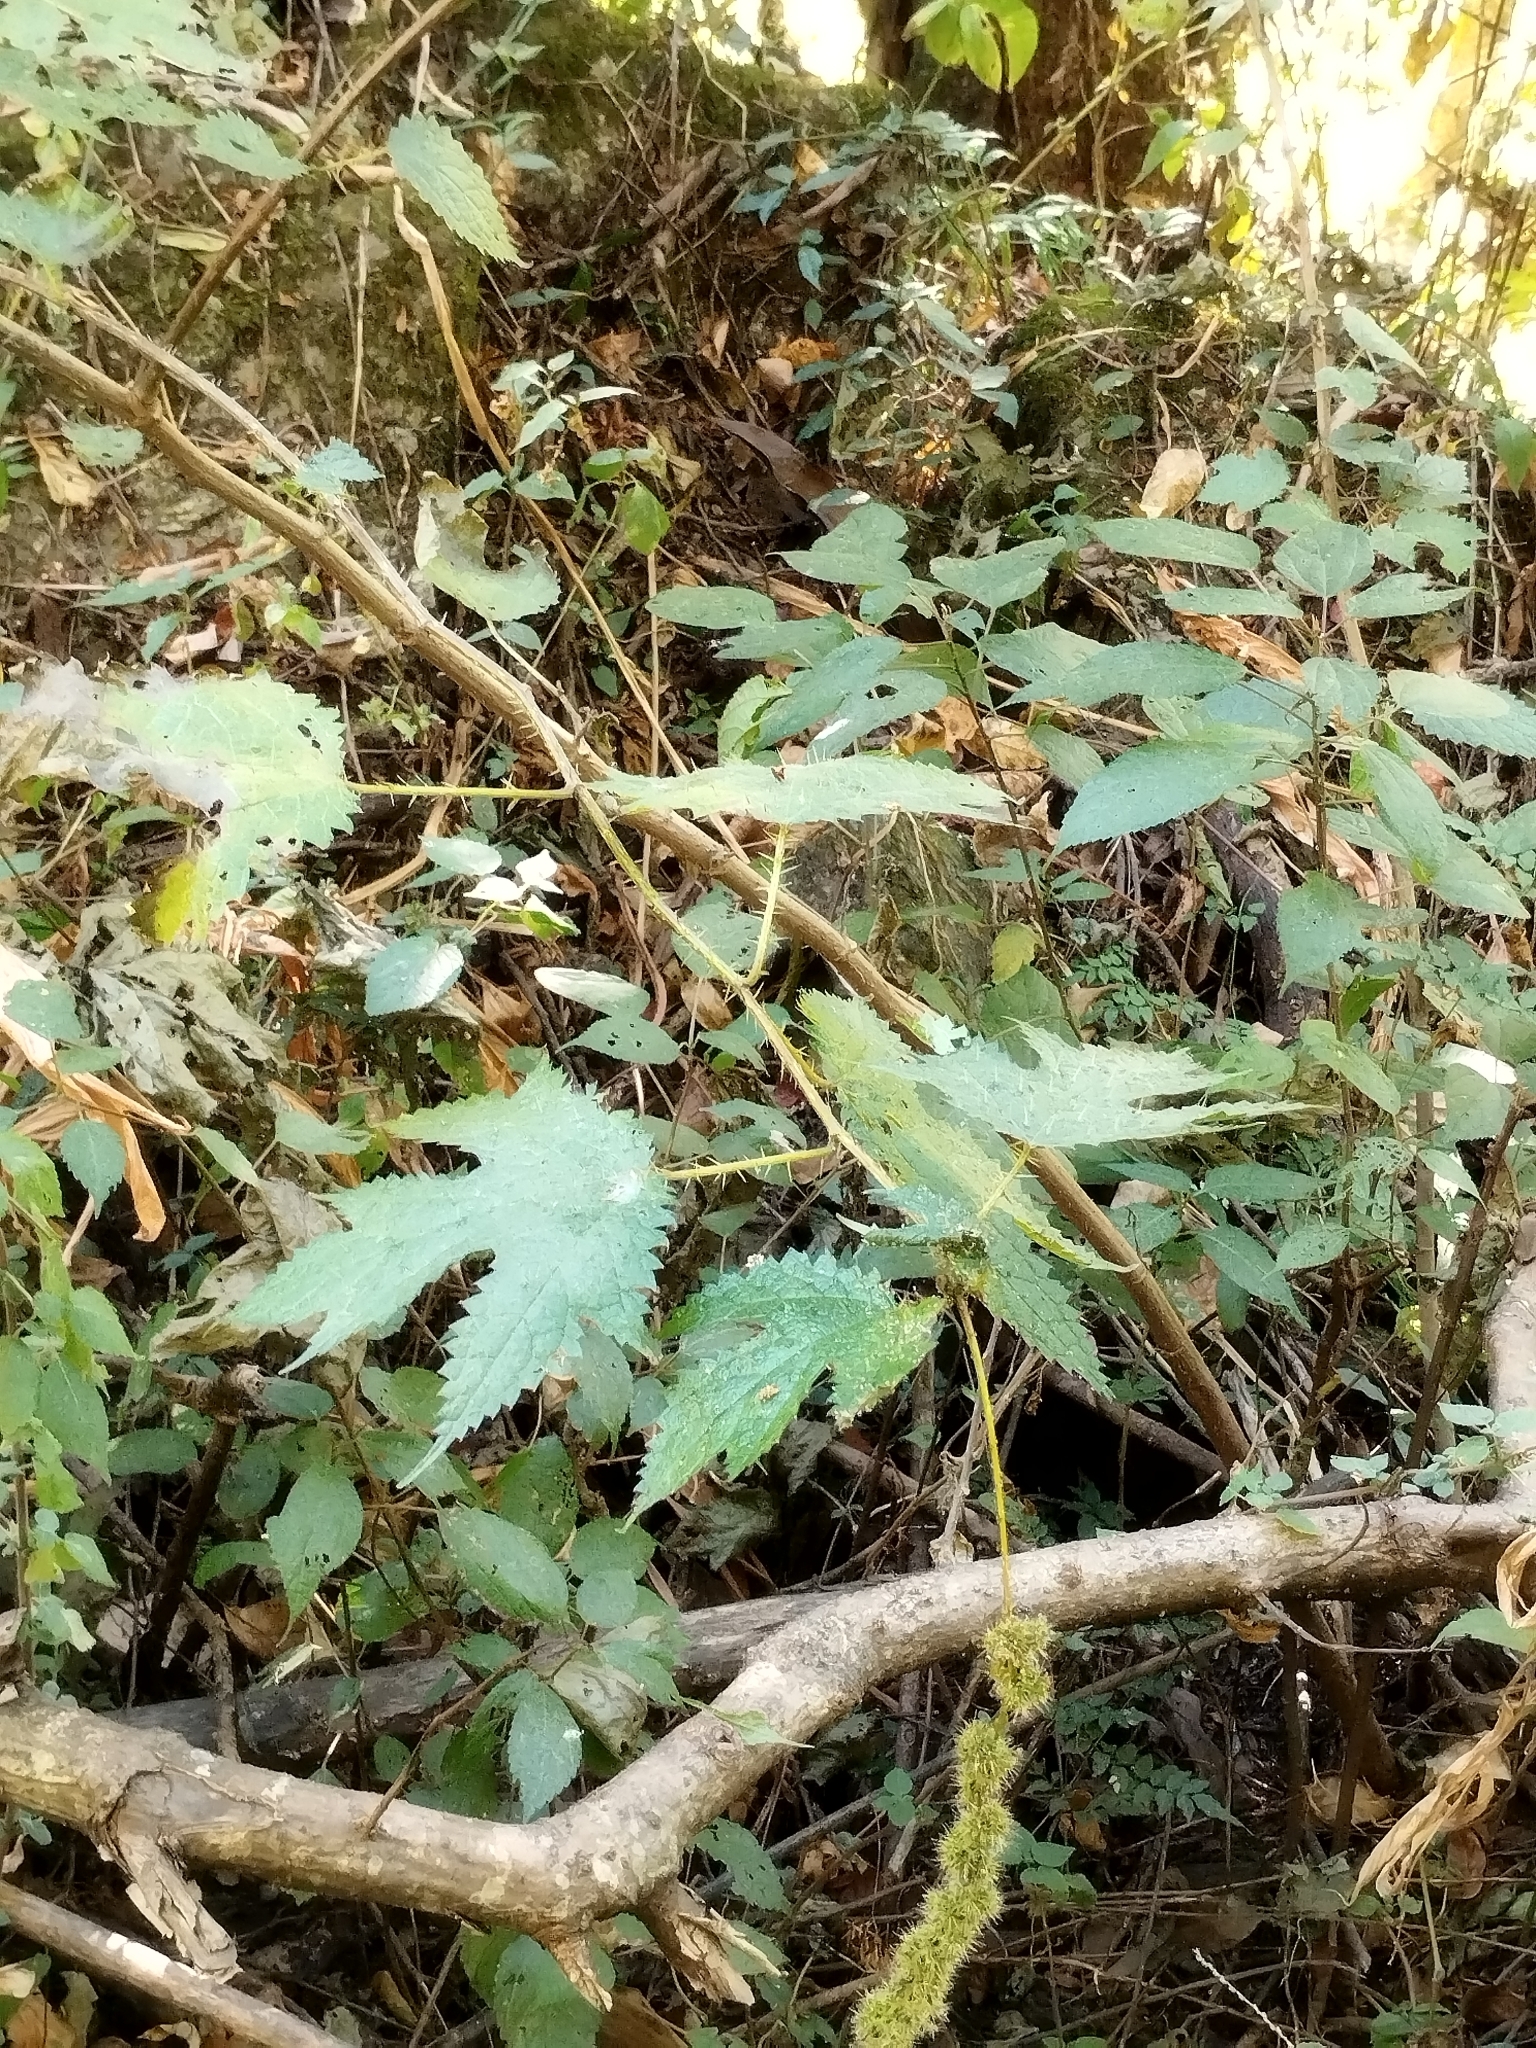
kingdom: Plantae
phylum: Tracheophyta
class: Magnoliopsida
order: Rosales
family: Urticaceae
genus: Girardinia
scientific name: Girardinia diversifolia
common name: Himalayan-nettle
